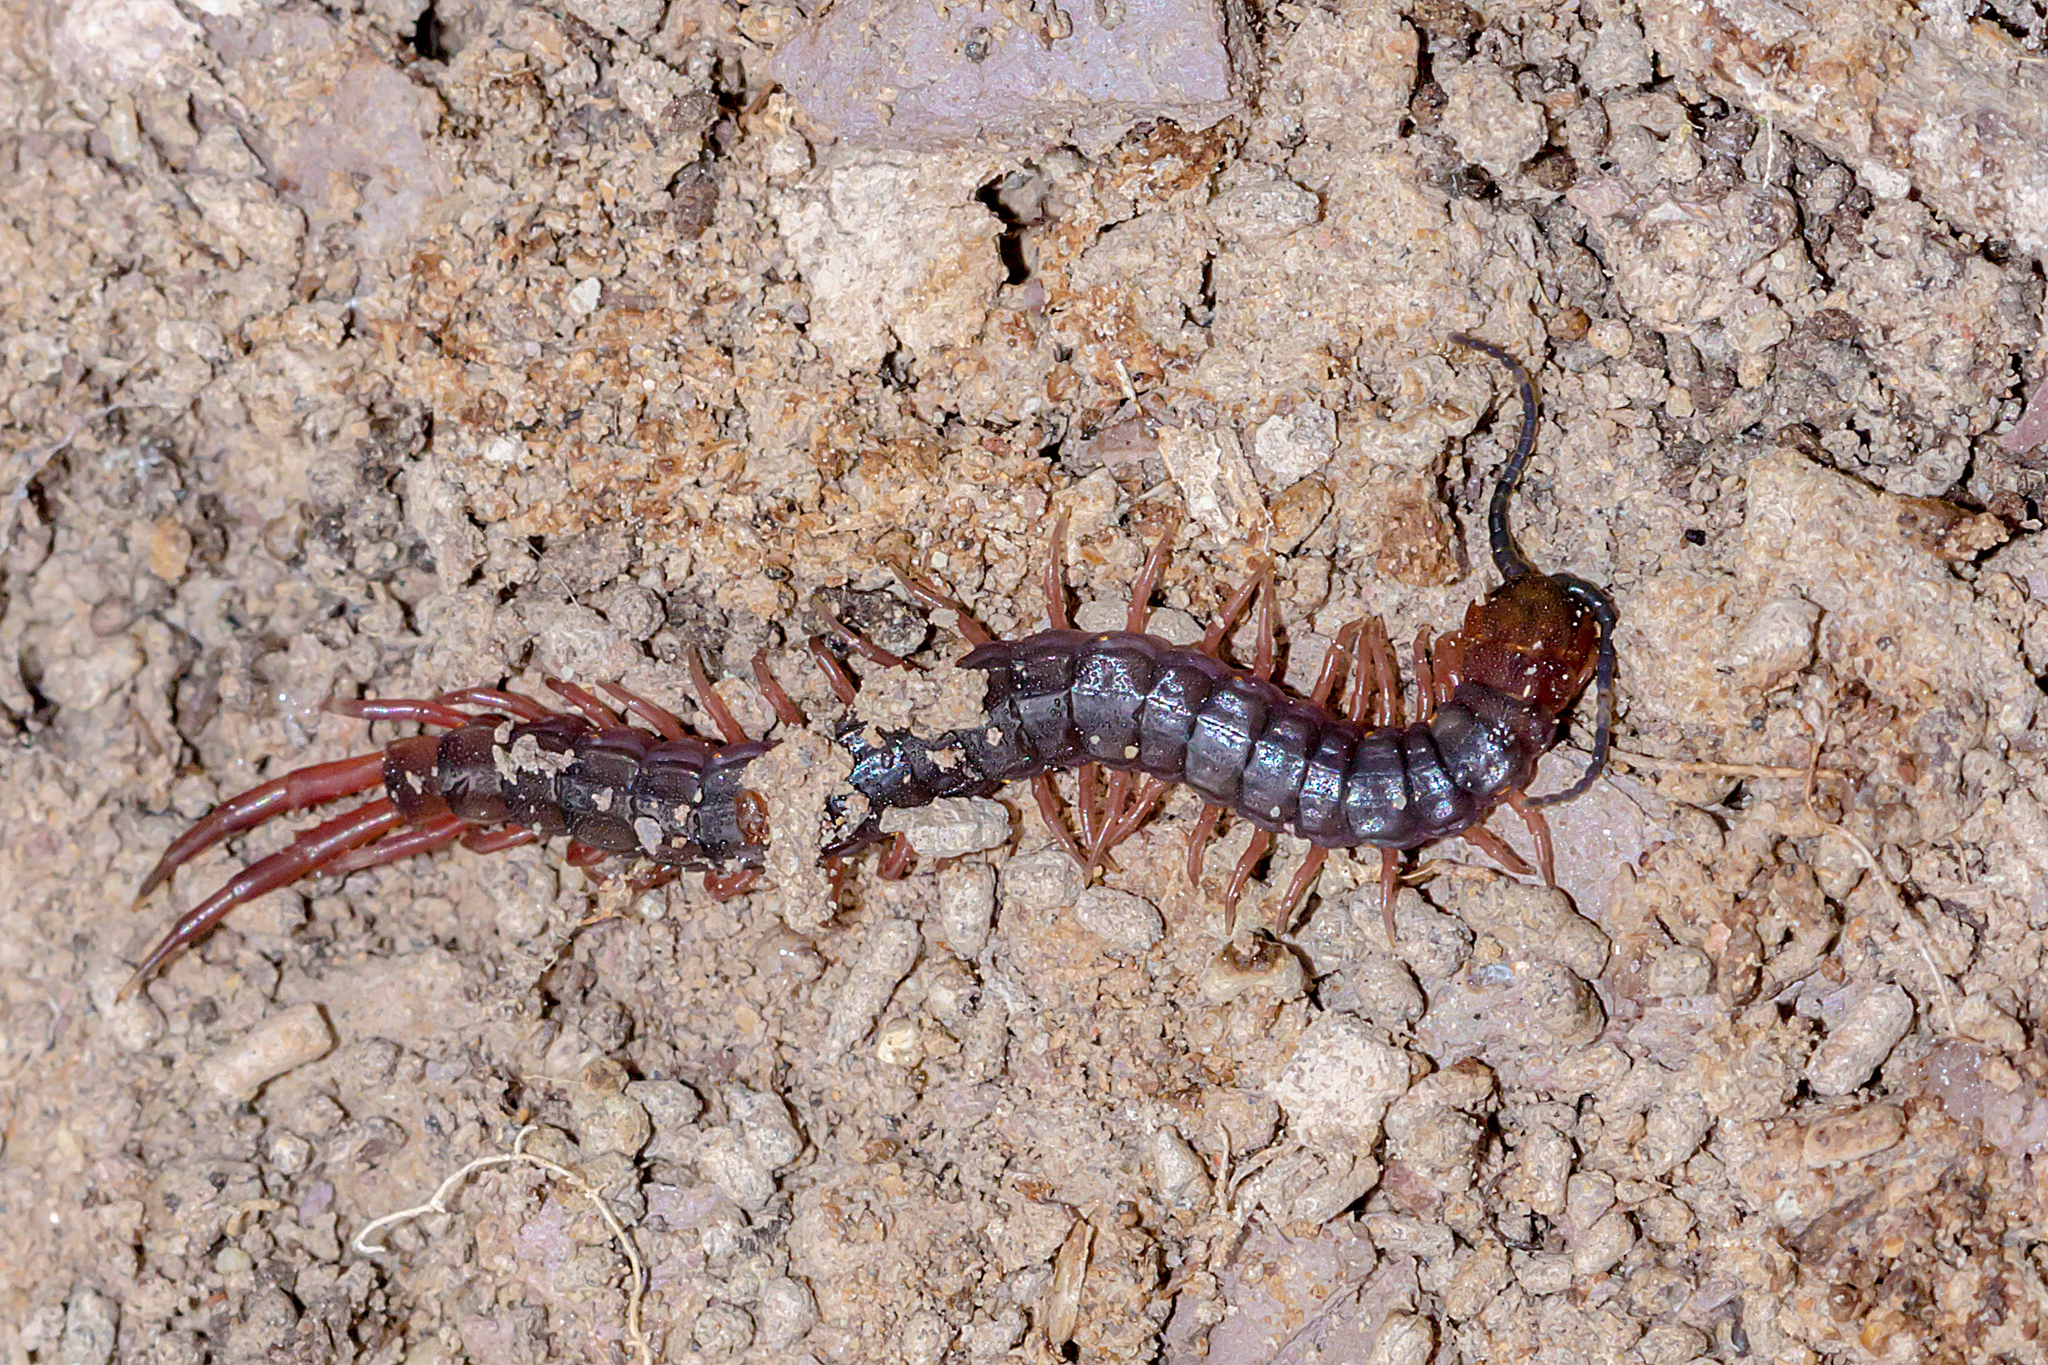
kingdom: Animalia
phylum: Arthropoda
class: Chilopoda
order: Scolopendromorpha
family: Scolopendridae
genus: Cormocephalus
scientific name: Cormocephalus aurantiipes
